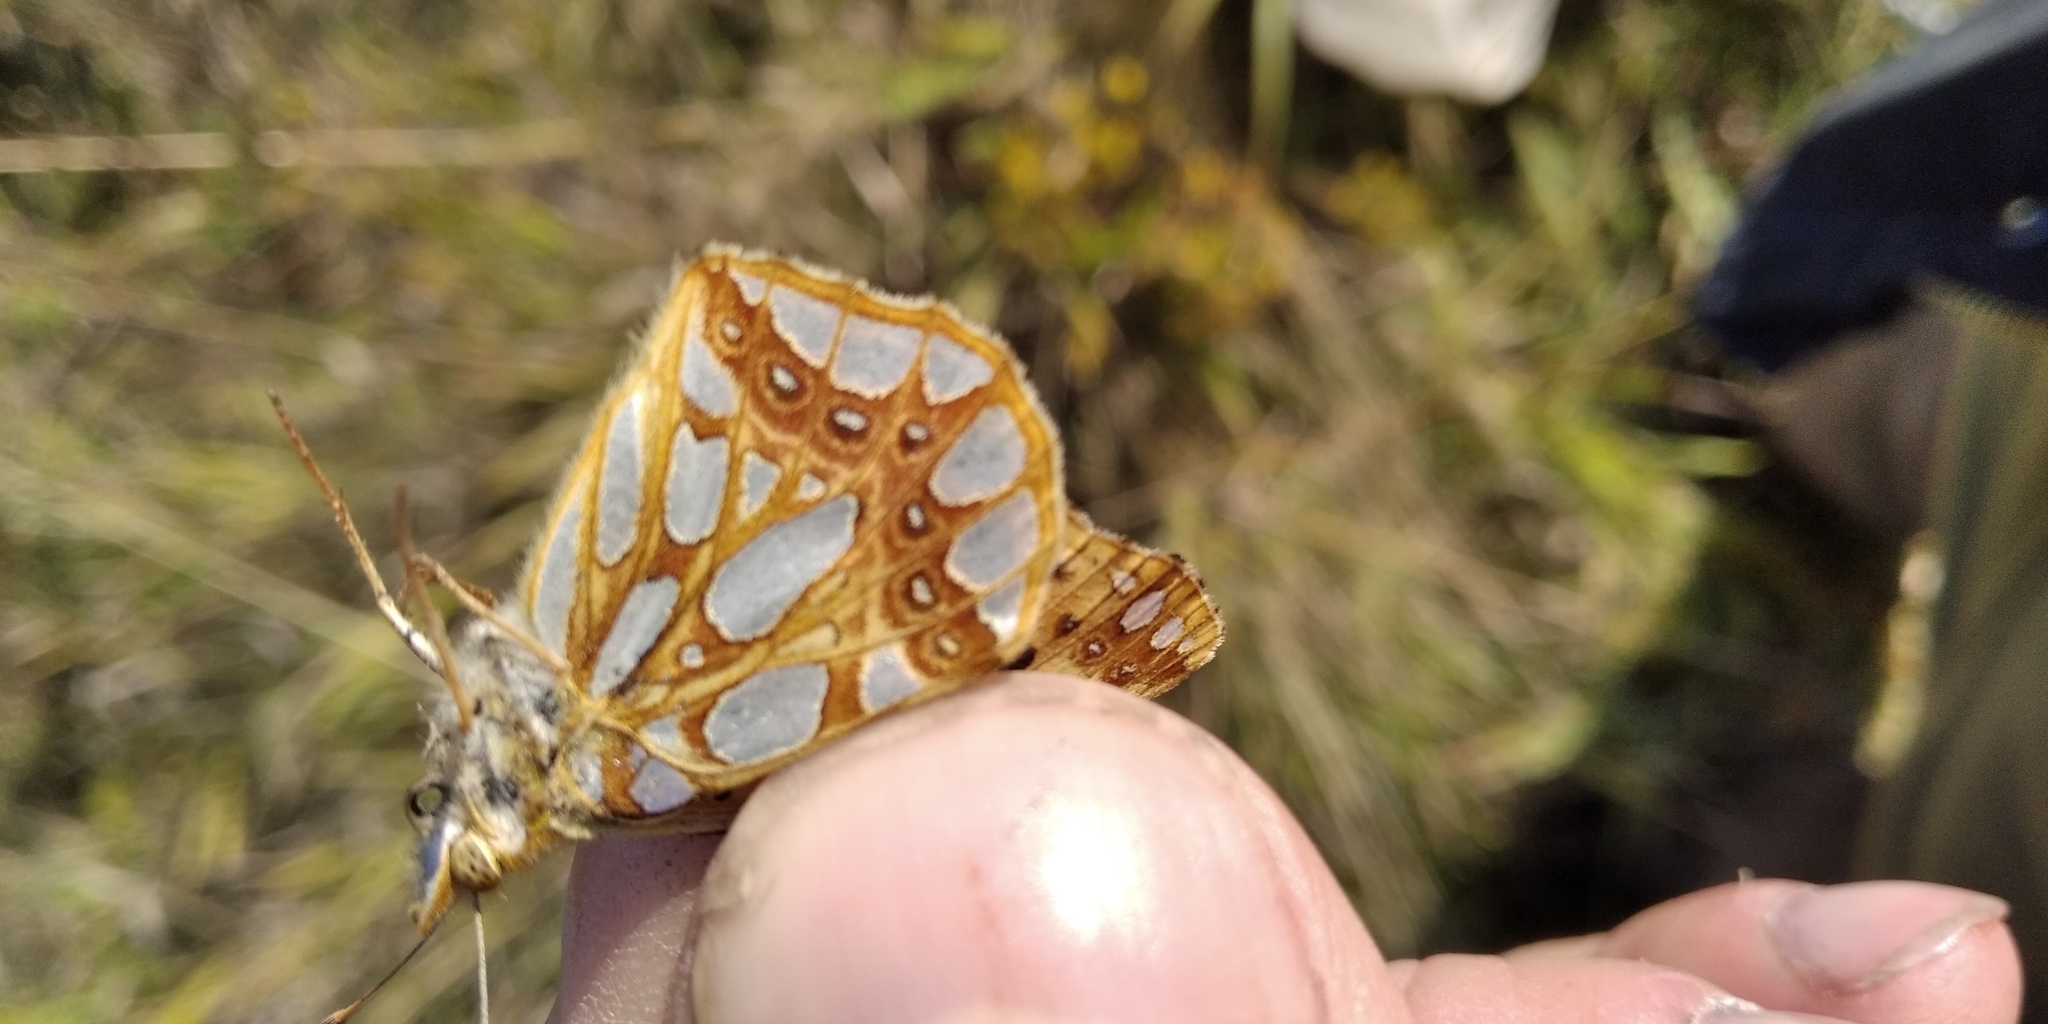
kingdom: Animalia
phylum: Arthropoda
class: Insecta
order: Lepidoptera
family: Nymphalidae
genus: Issoria
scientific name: Issoria lathonia
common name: Queen of spain fritillary
